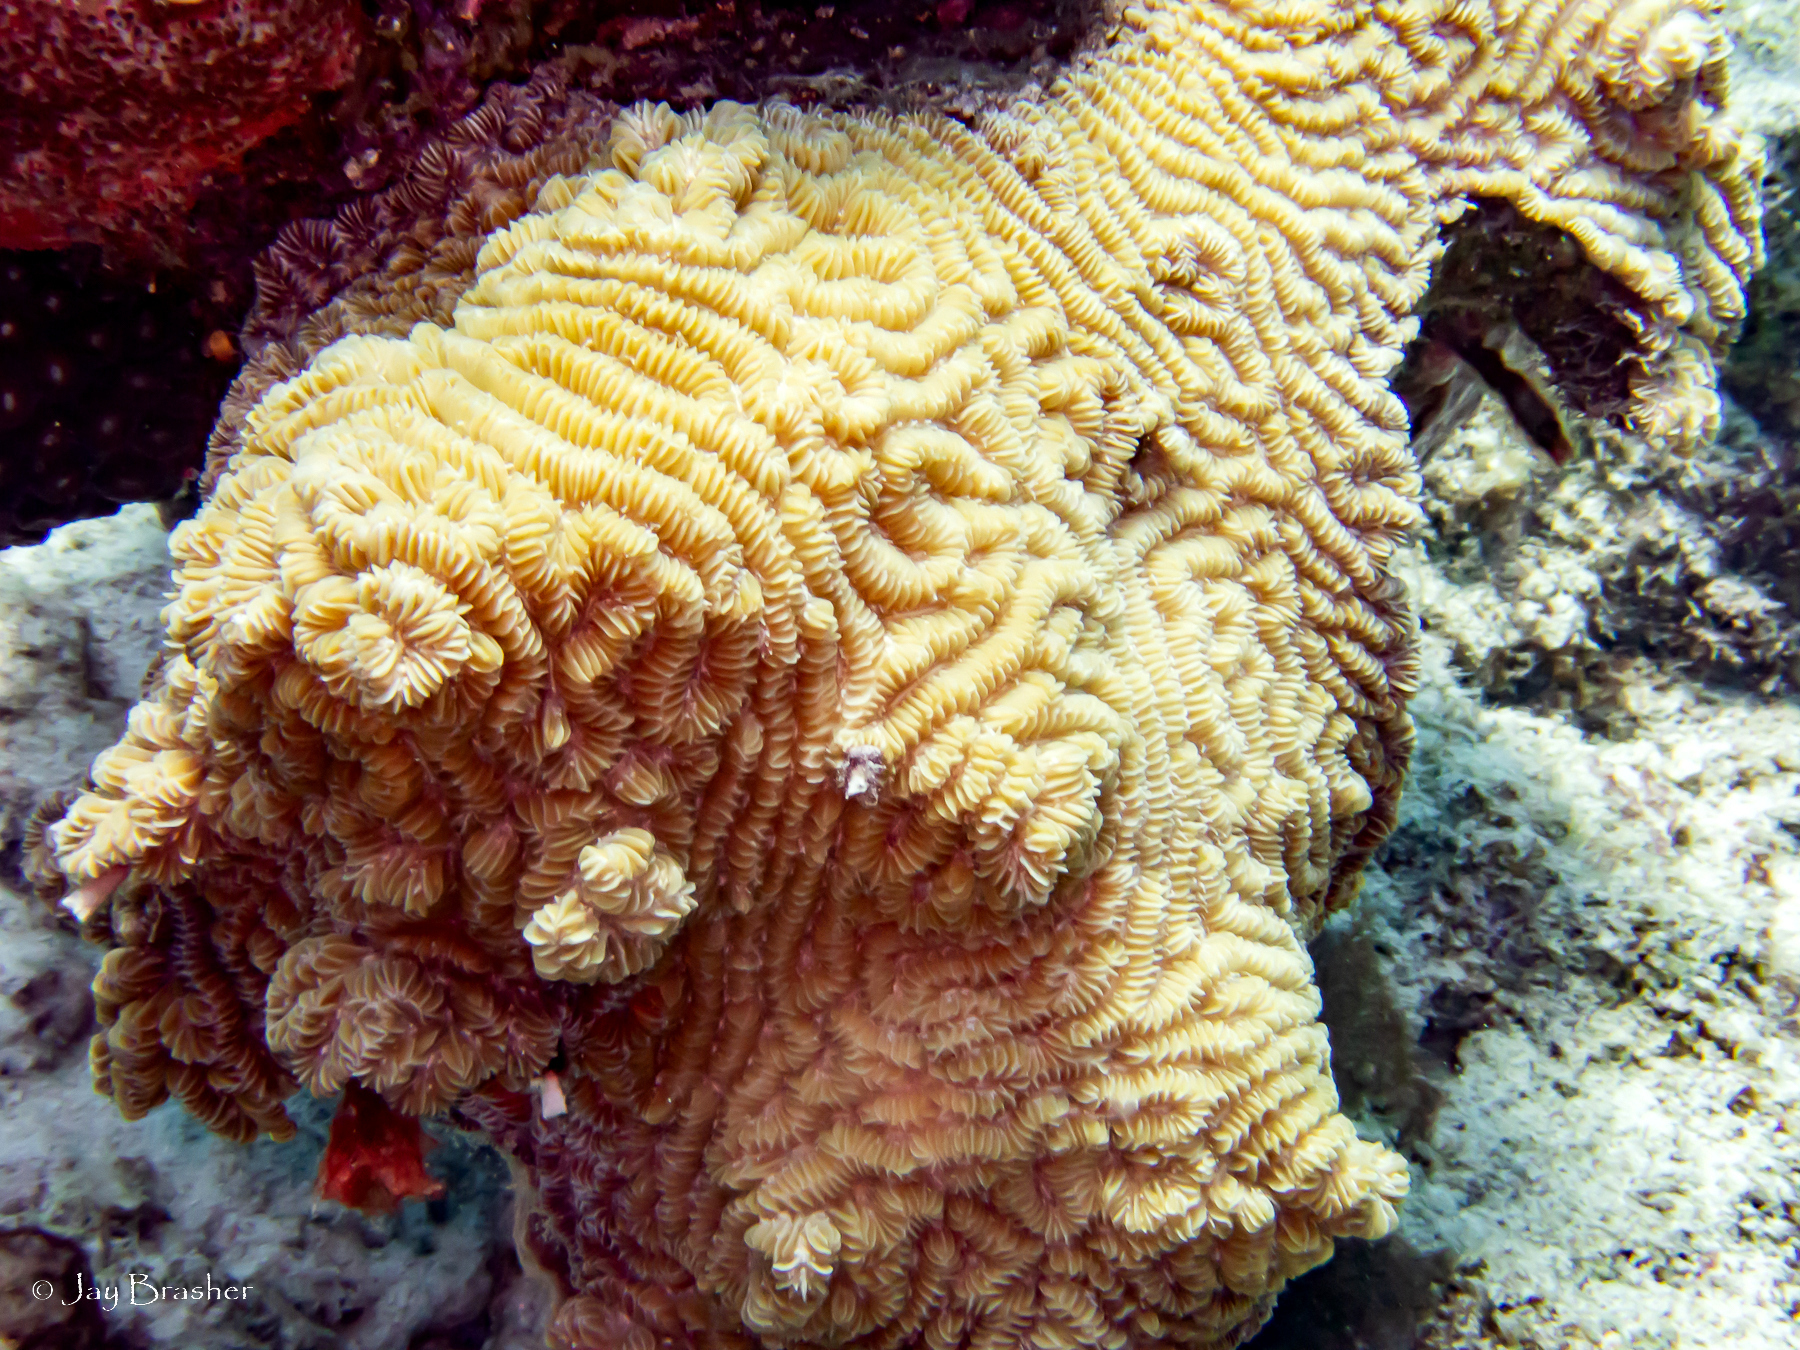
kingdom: Animalia
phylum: Cnidaria
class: Anthozoa
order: Scleractinia
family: Meandrinidae
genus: Meandrina
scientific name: Meandrina meandrites
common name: Maze coral
